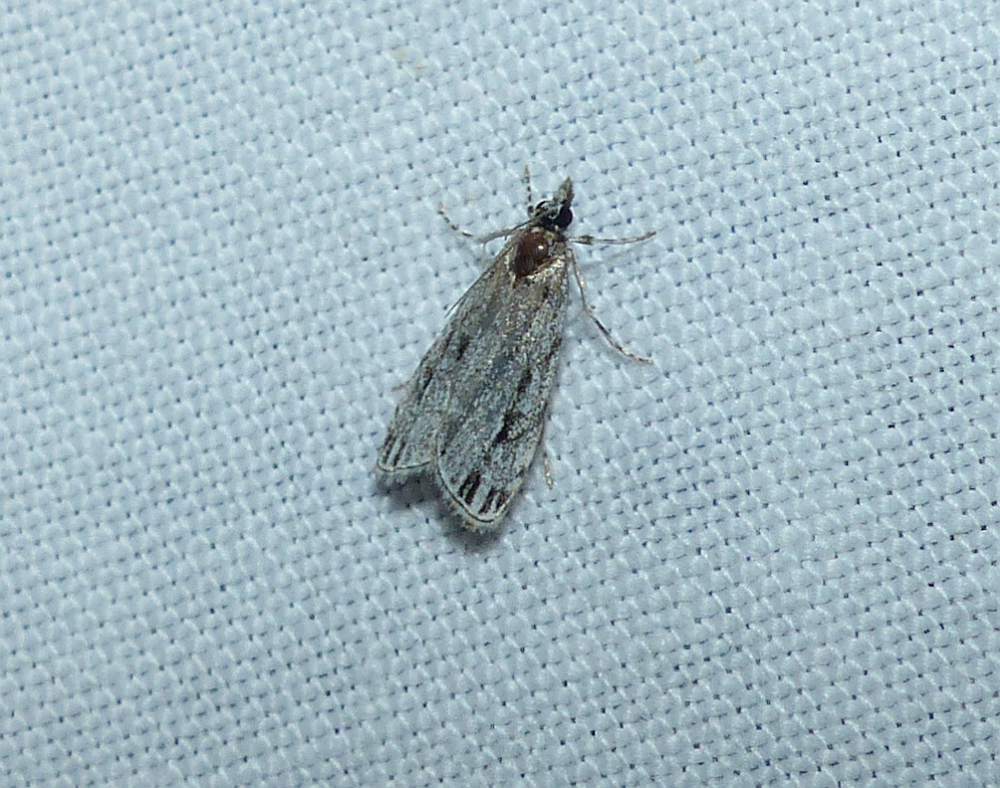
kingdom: Animalia
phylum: Arthropoda
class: Insecta
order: Lepidoptera
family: Crambidae
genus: Eudonia
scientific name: Eudonia strigalis
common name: Striped eudonia moth
